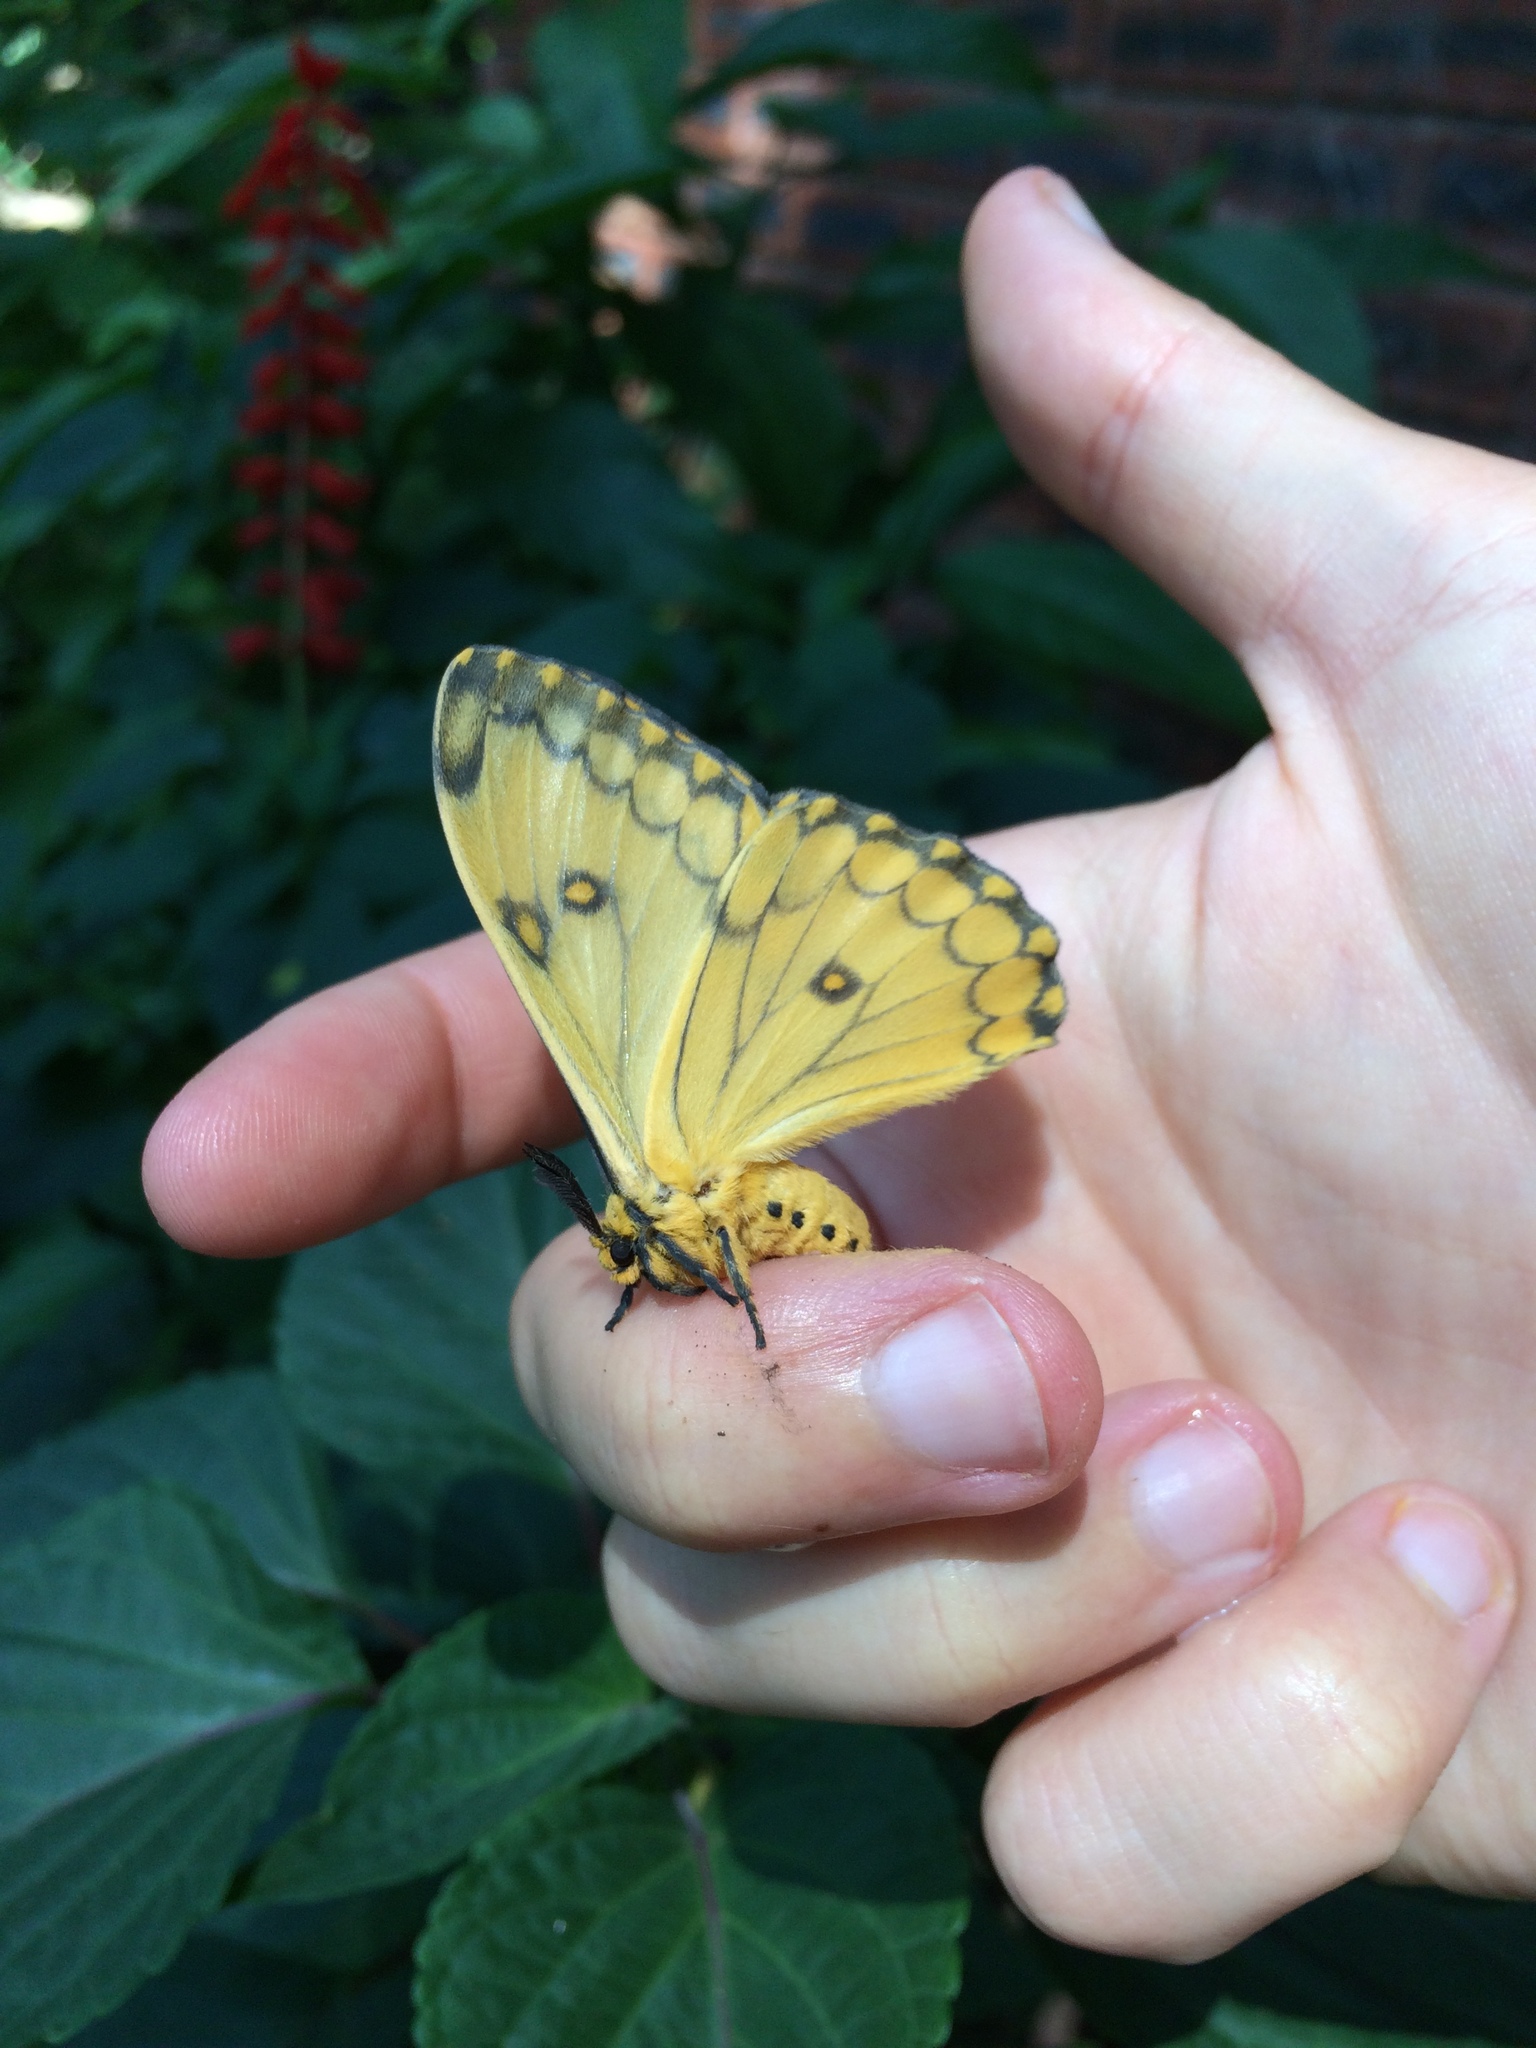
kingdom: Animalia
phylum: Arthropoda
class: Insecta
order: Lepidoptera
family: Saturniidae
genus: Pseudaphelia
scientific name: Pseudaphelia apollinaris
